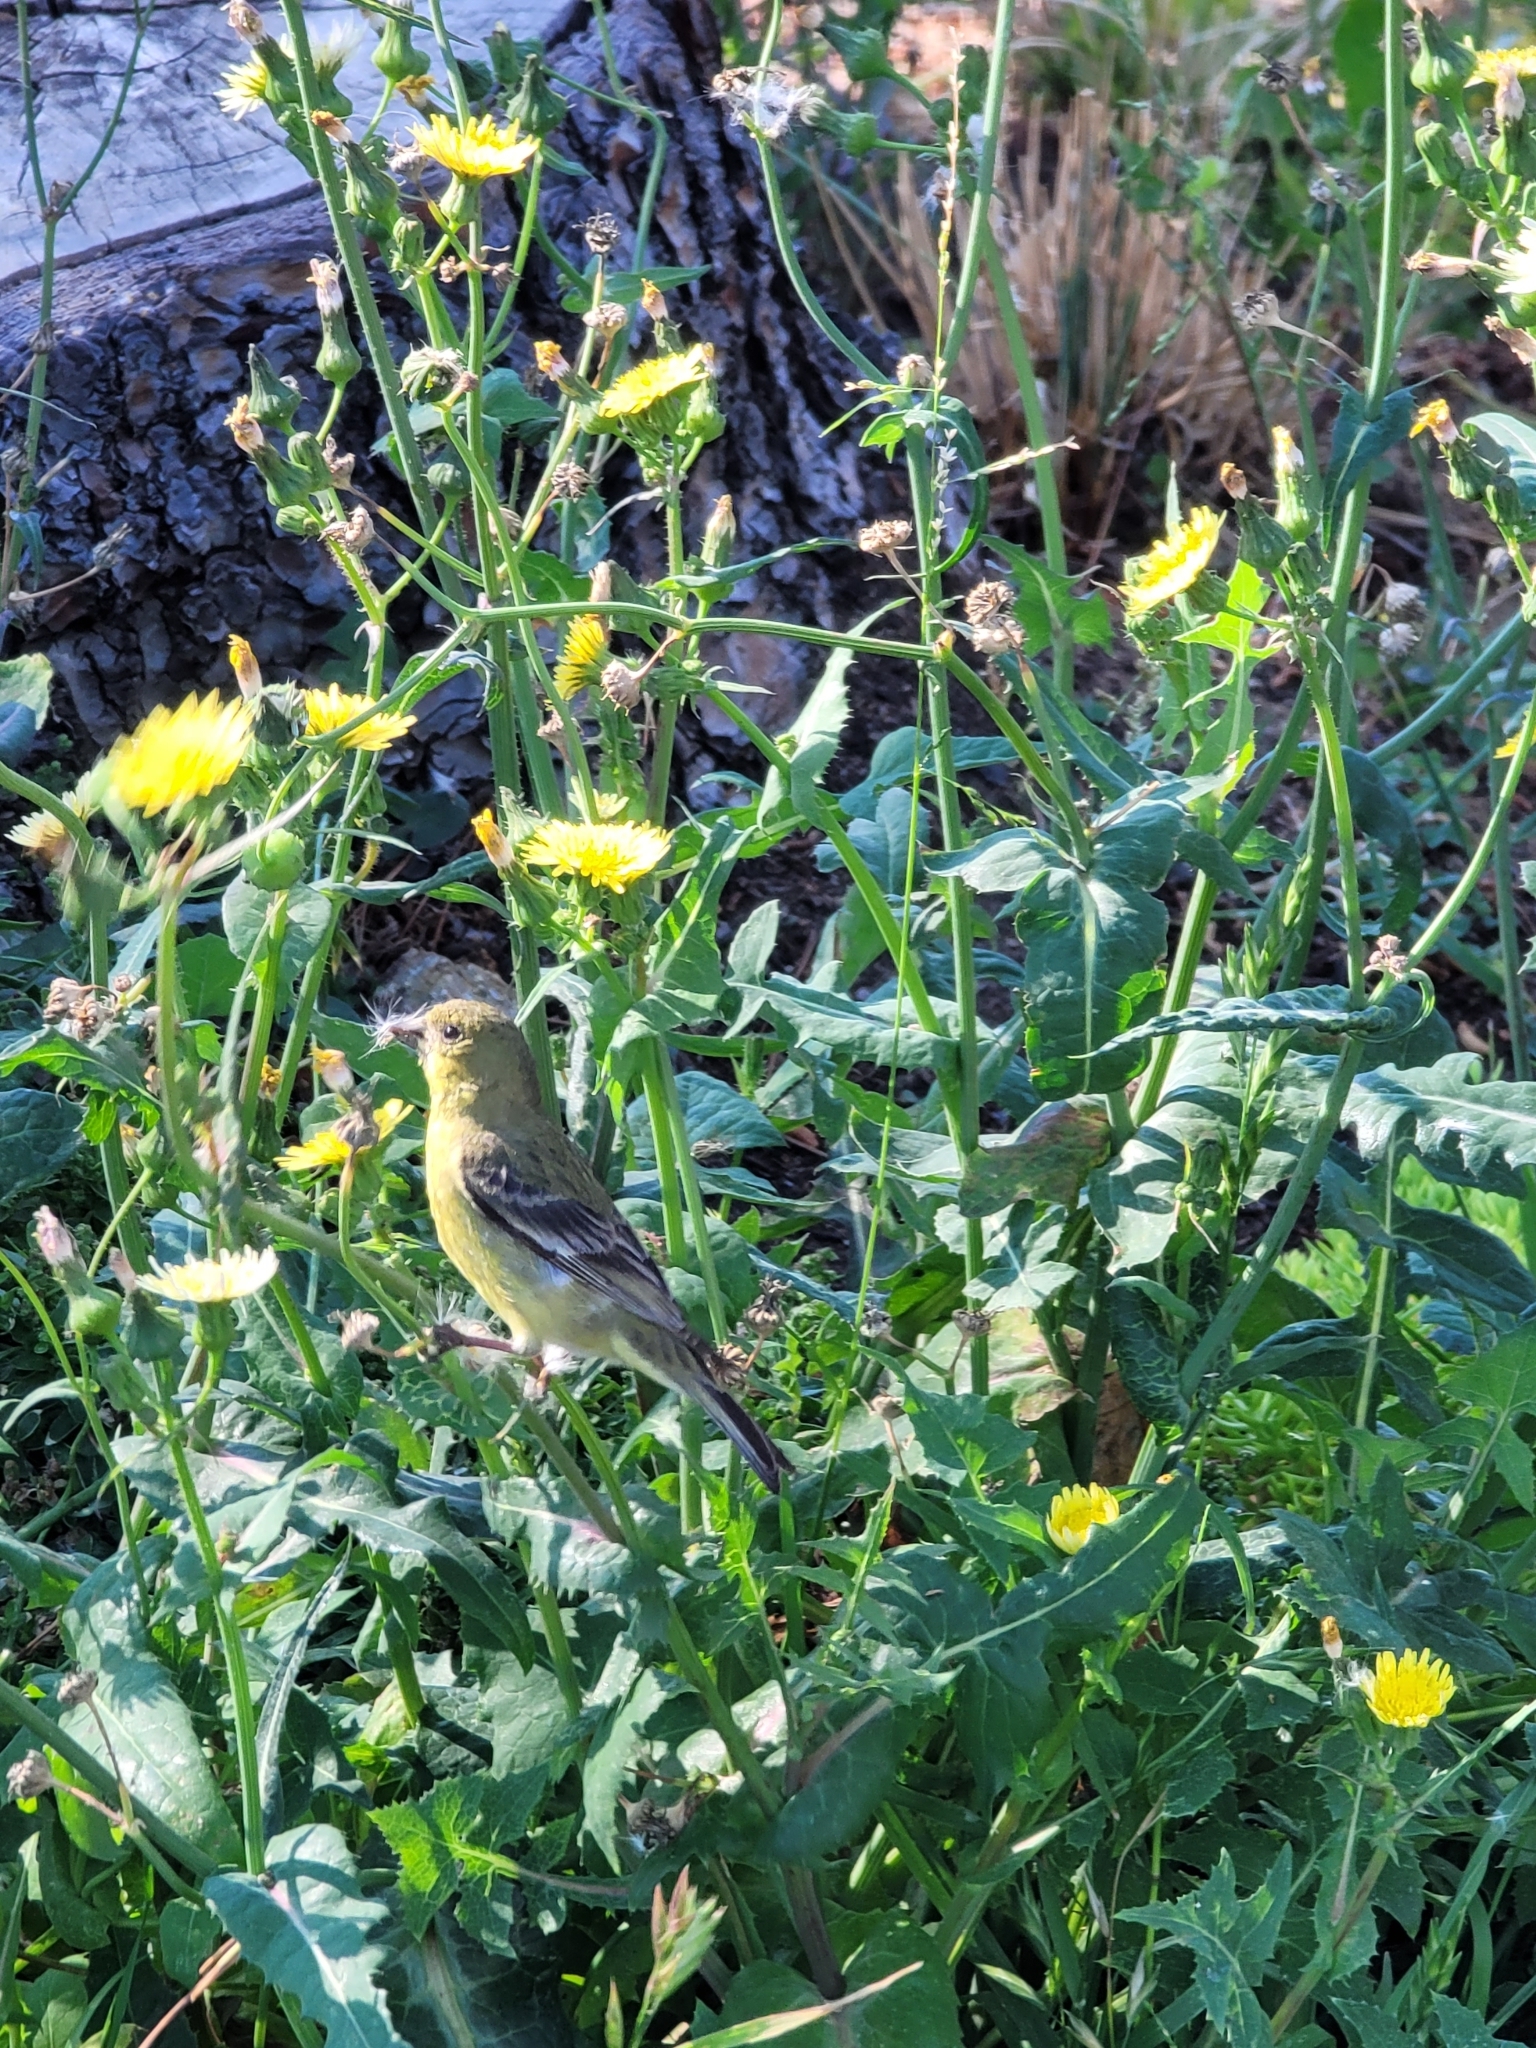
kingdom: Animalia
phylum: Chordata
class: Aves
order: Passeriformes
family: Fringillidae
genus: Spinus
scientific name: Spinus psaltria
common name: Lesser goldfinch
